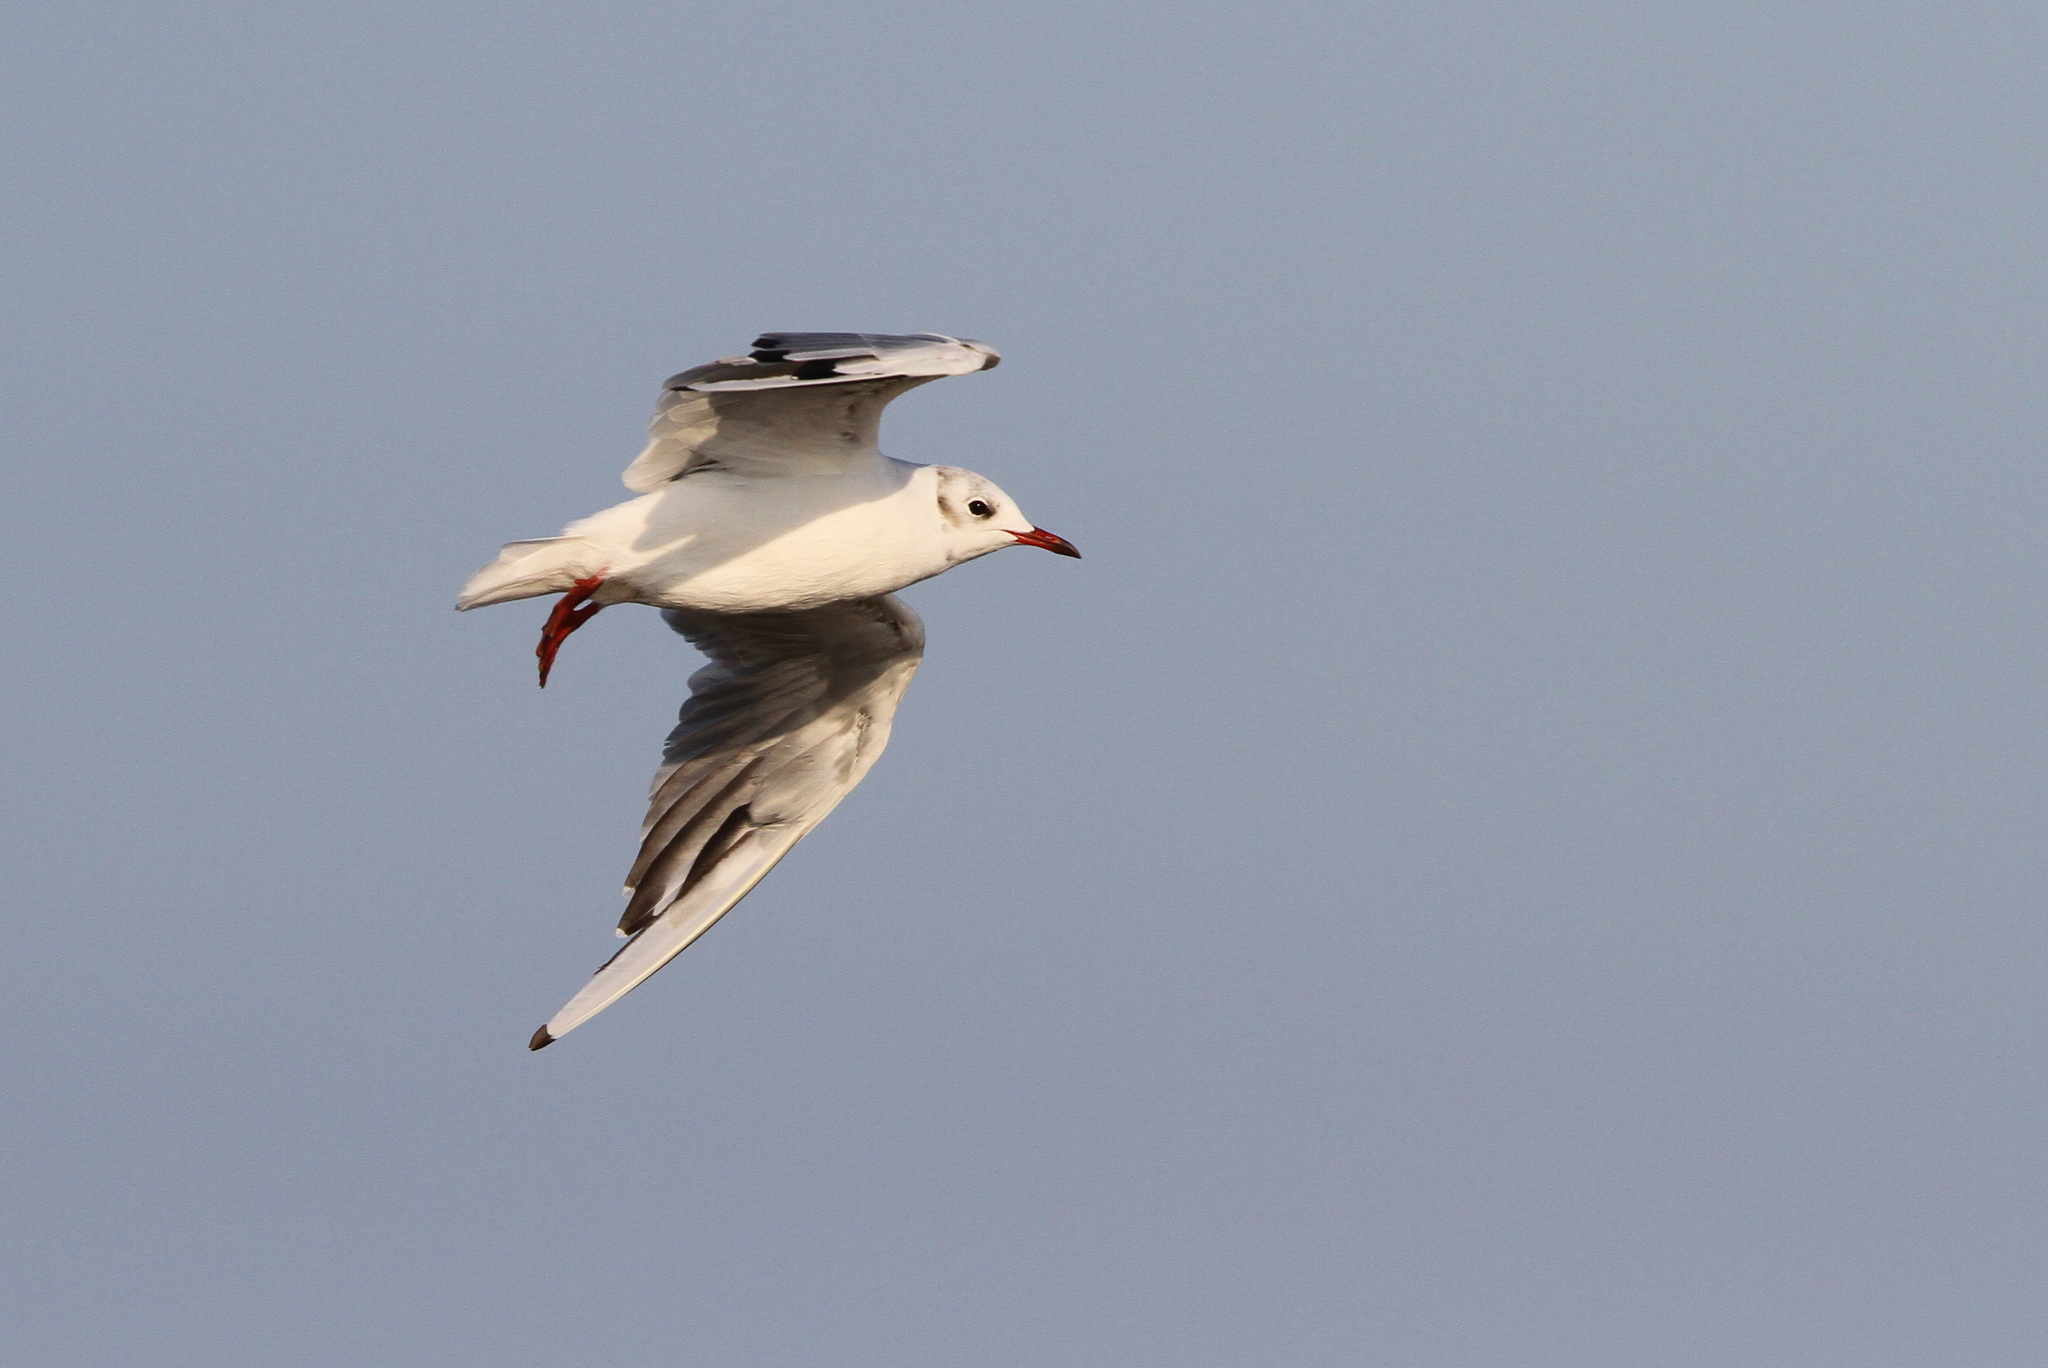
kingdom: Animalia
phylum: Chordata
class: Aves
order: Charadriiformes
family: Laridae
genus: Chroicocephalus
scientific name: Chroicocephalus ridibundus
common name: Black-headed gull
